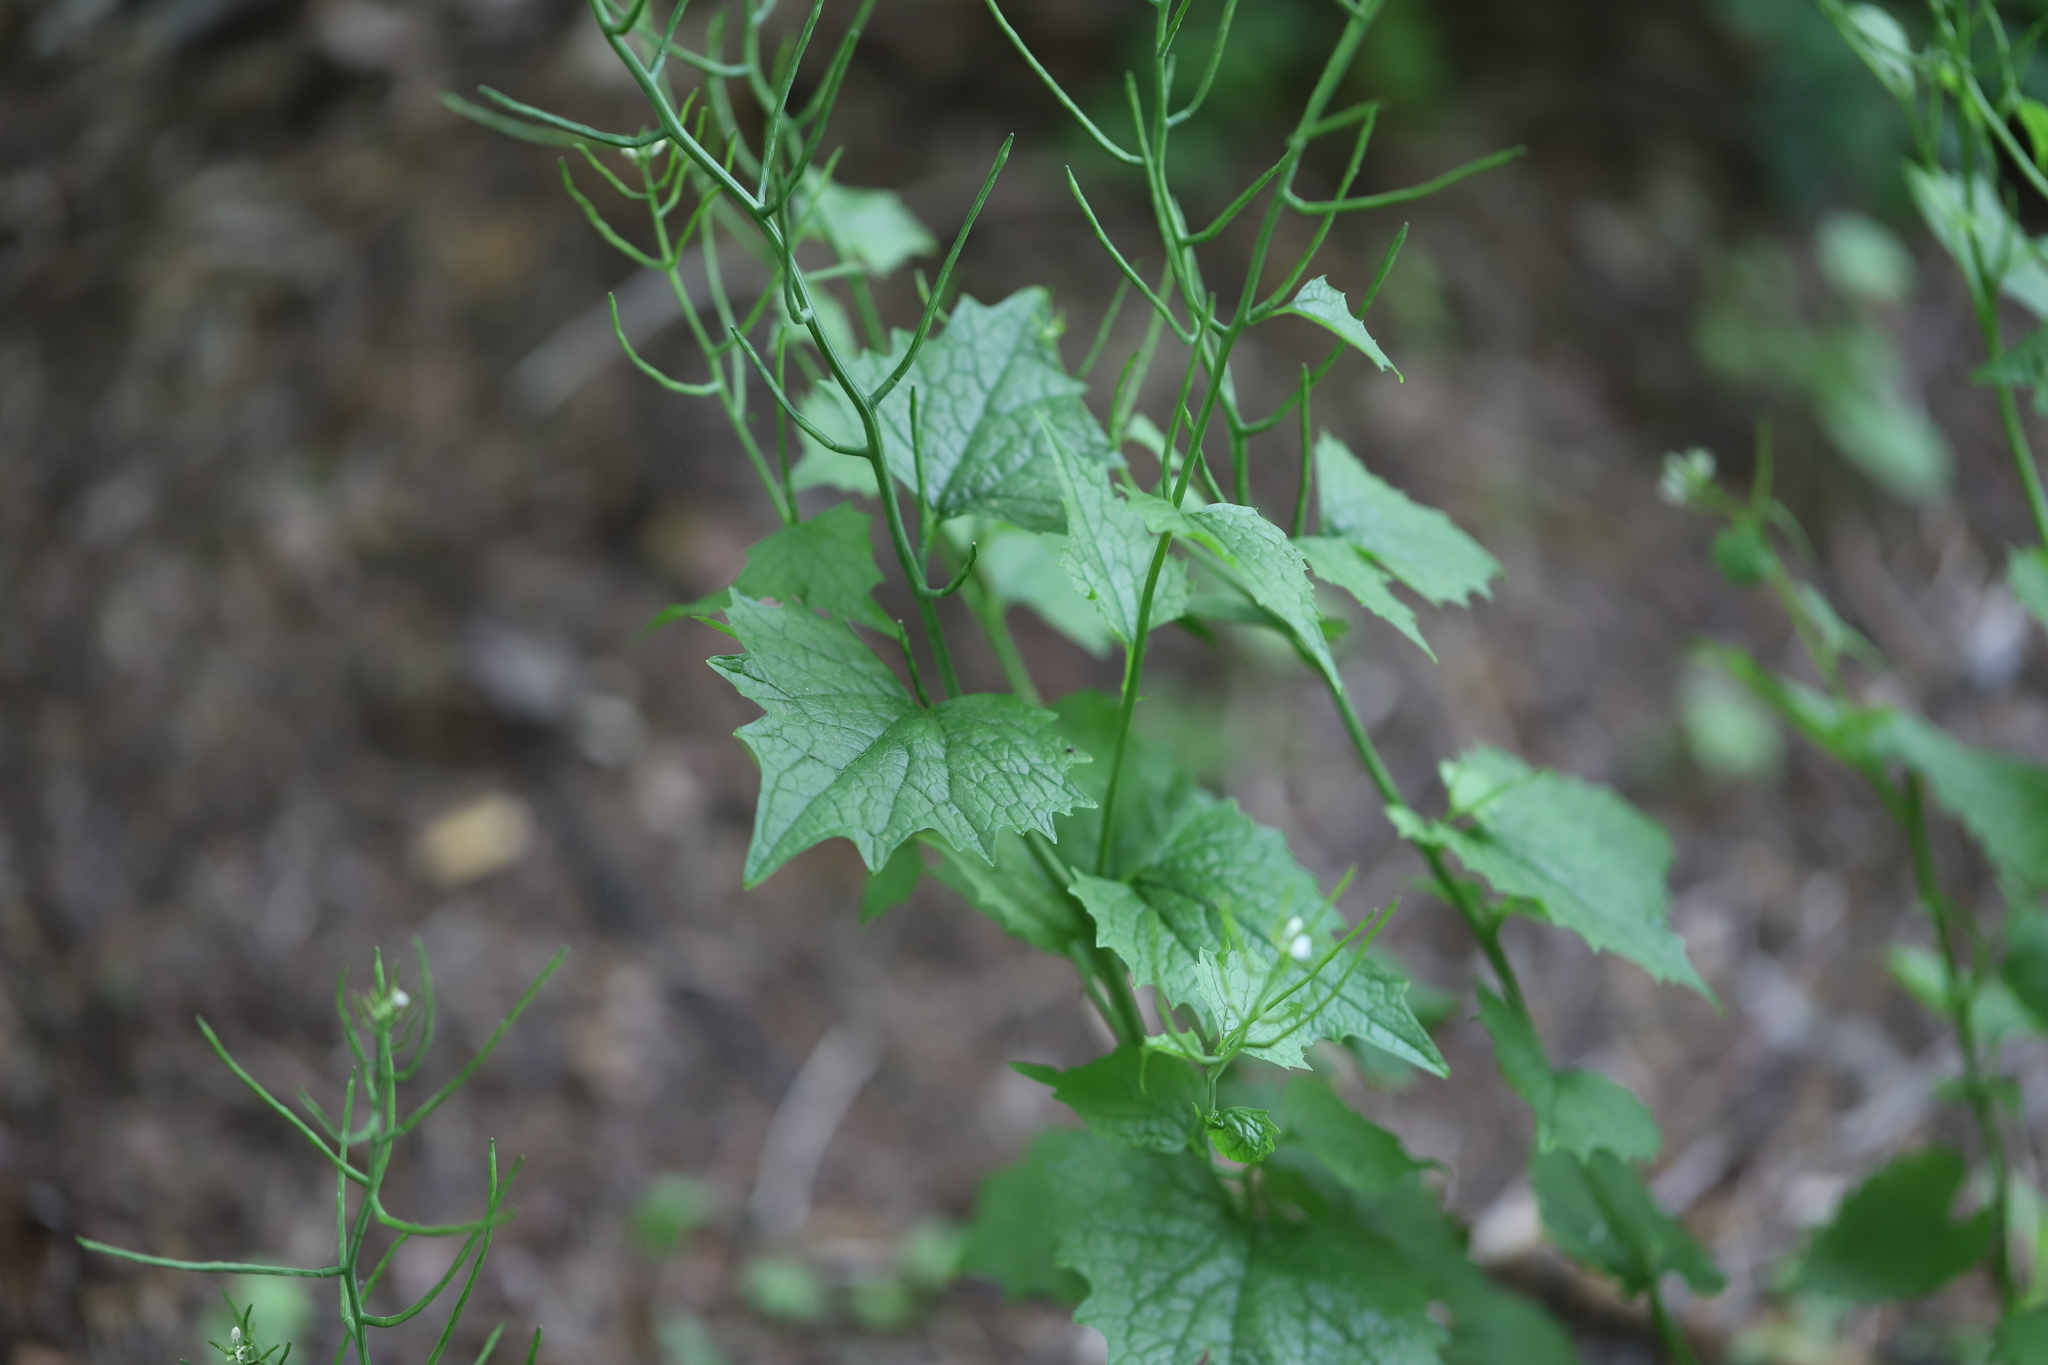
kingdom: Plantae
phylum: Tracheophyta
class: Magnoliopsida
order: Brassicales
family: Brassicaceae
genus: Alliaria
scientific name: Alliaria petiolata
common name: Garlic mustard
